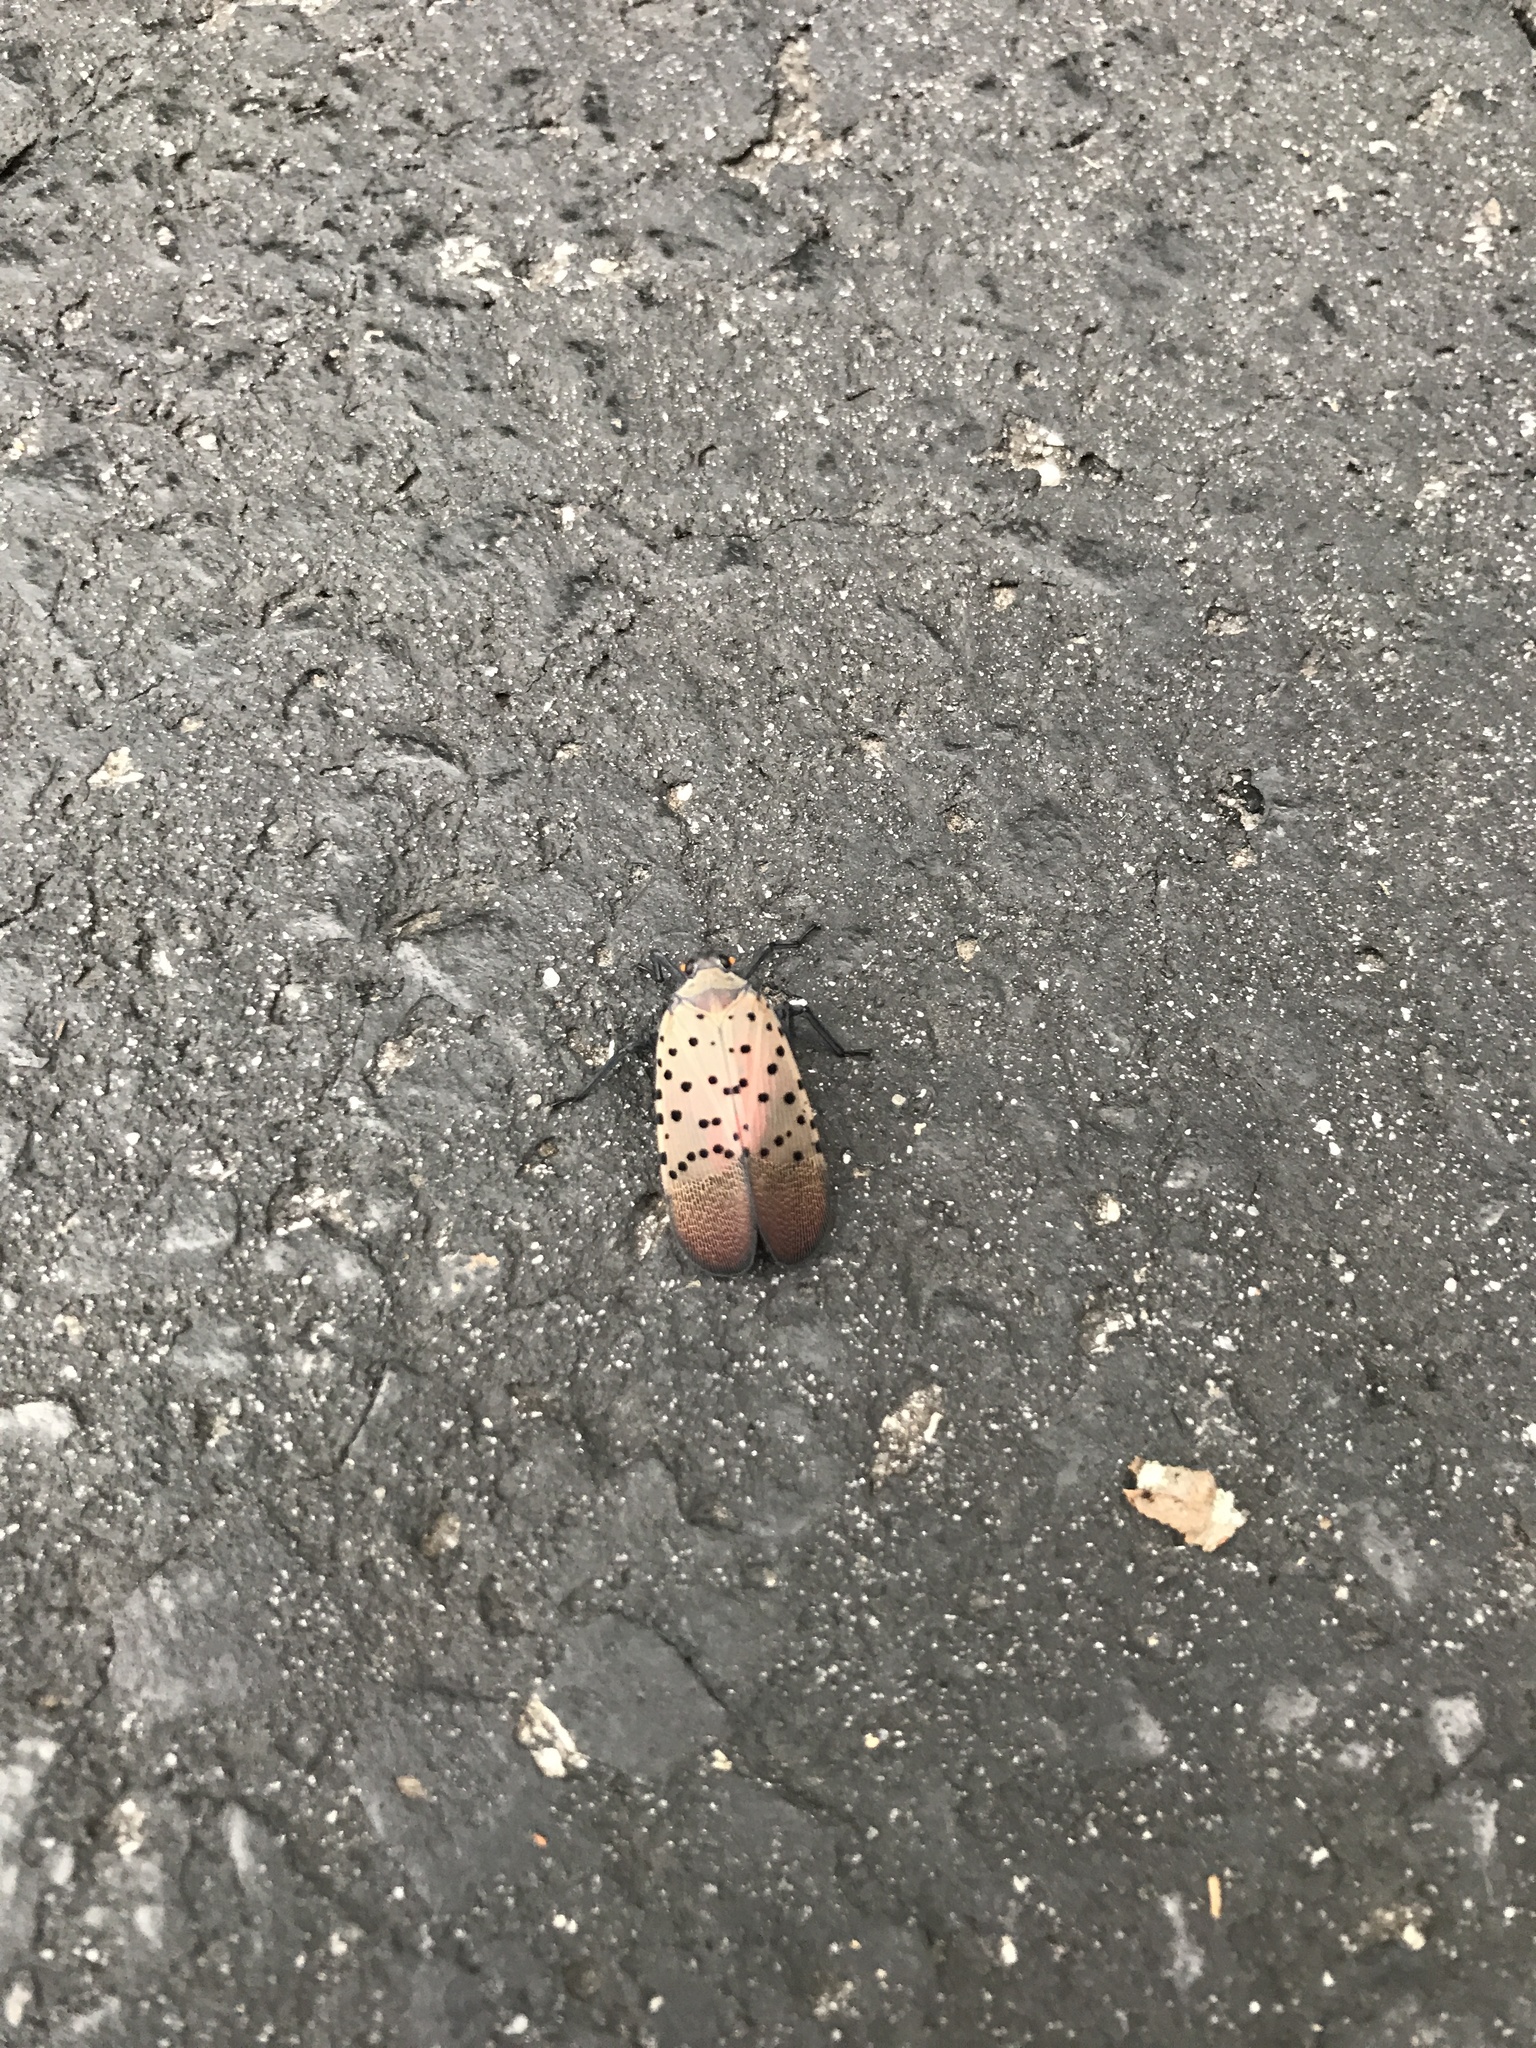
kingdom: Animalia
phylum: Arthropoda
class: Insecta
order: Hemiptera
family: Fulgoridae
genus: Lycorma
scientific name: Lycorma delicatula
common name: Spotted lanternfly
